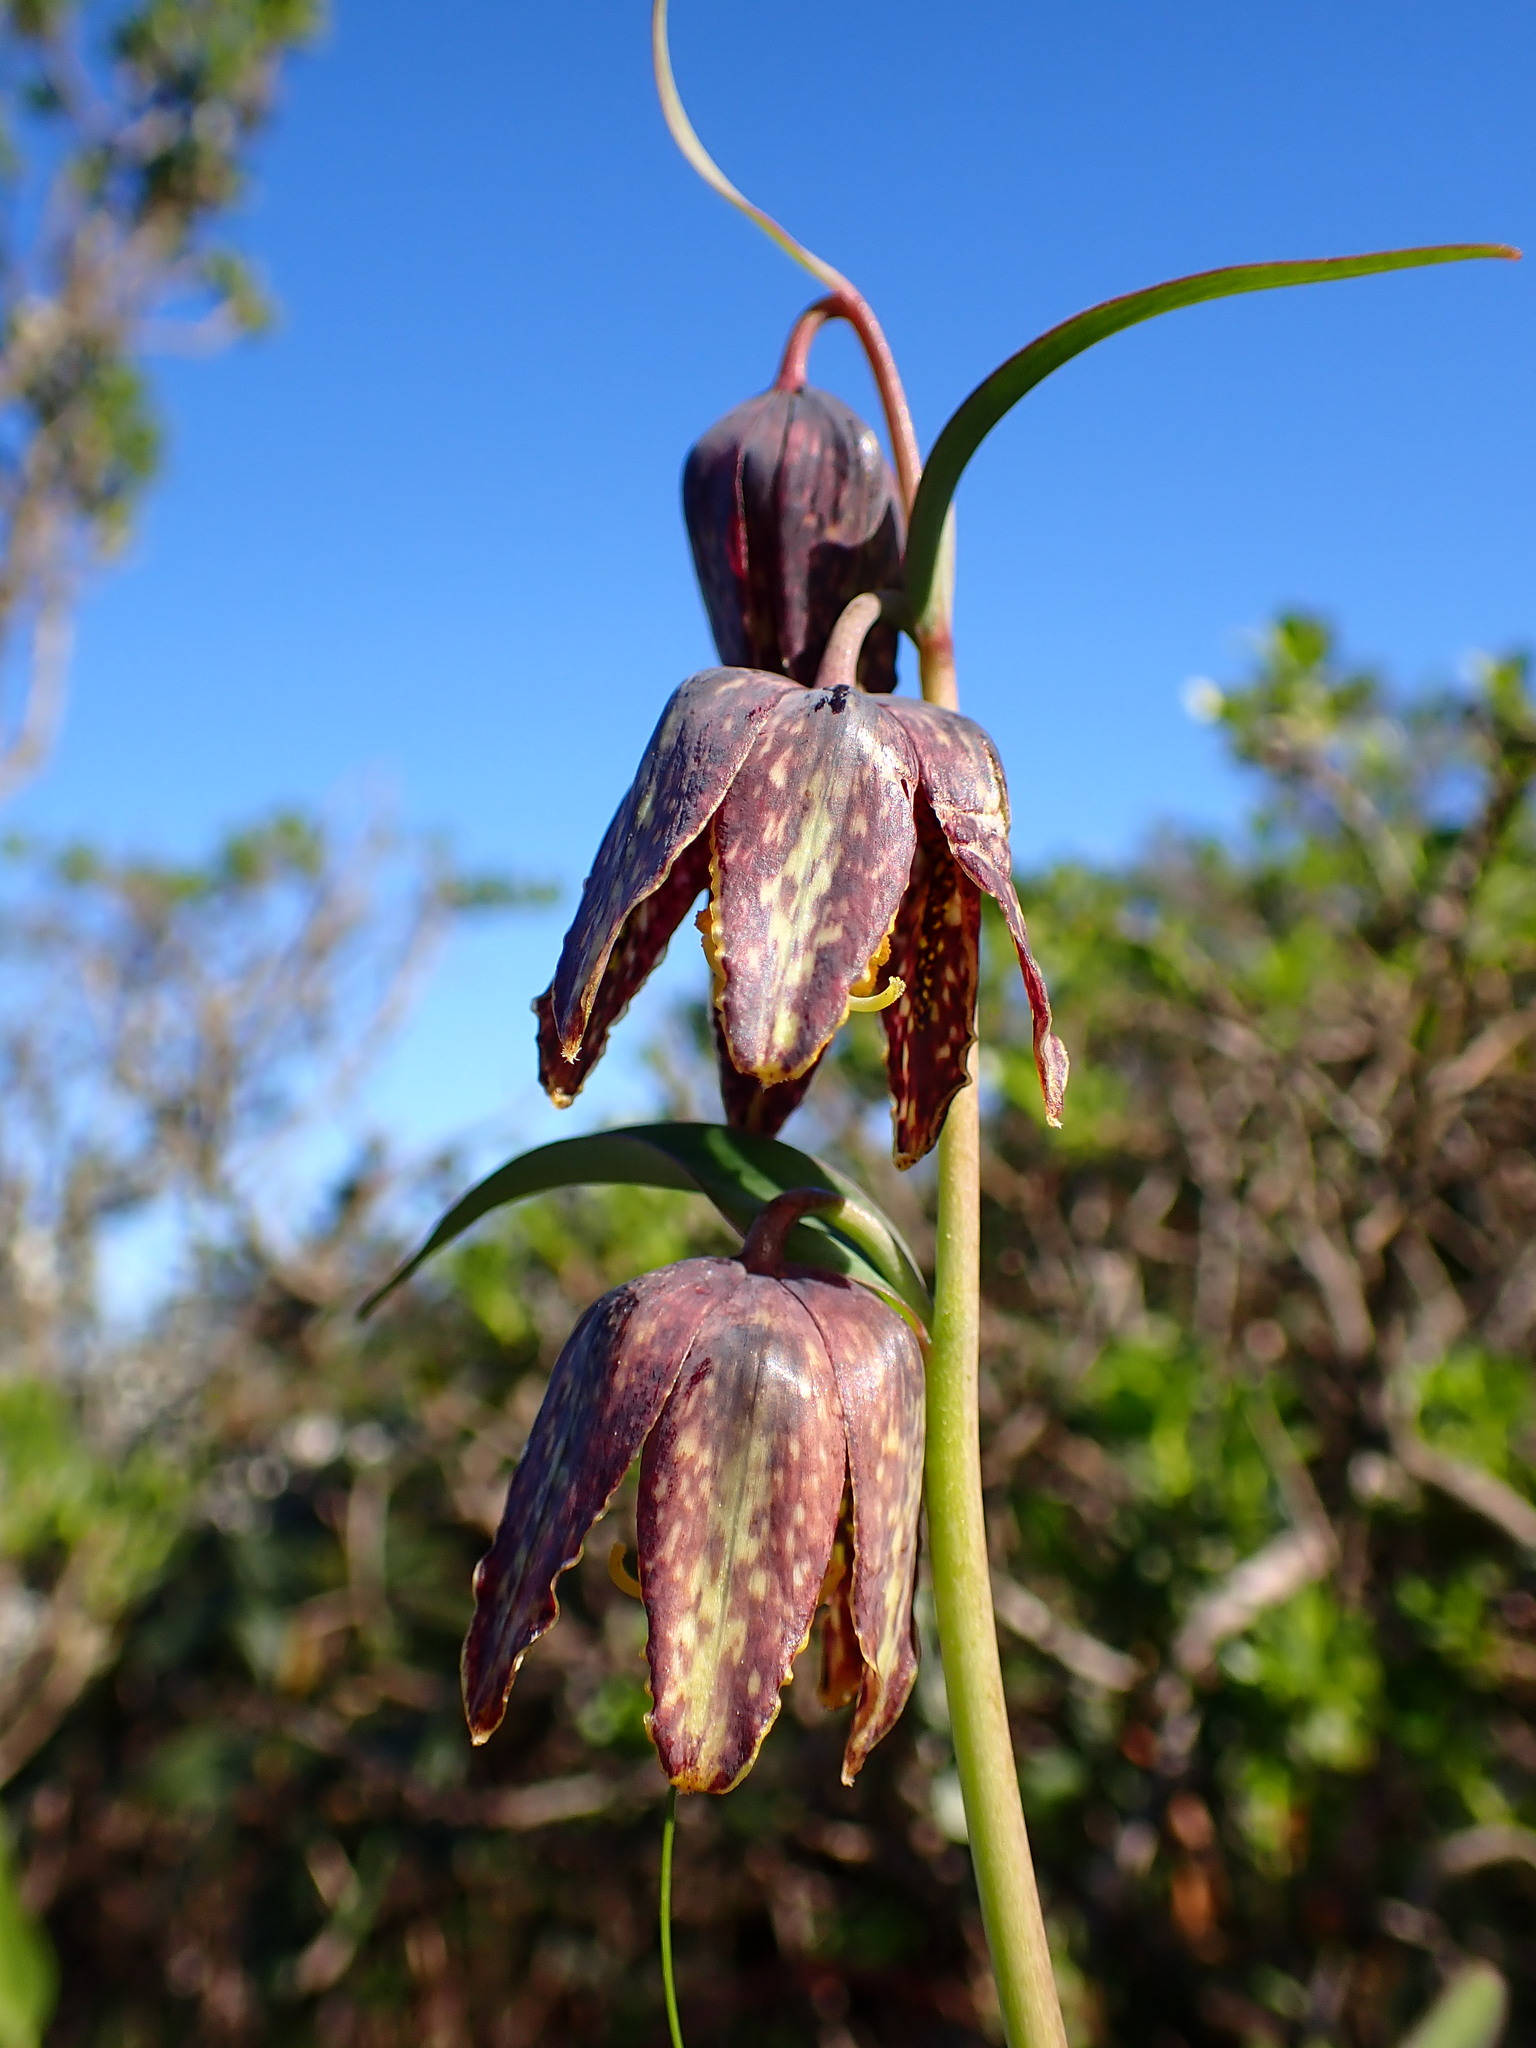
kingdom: Plantae
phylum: Tracheophyta
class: Liliopsida
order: Liliales
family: Liliaceae
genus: Fritillaria
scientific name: Fritillaria affinis
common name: Ojai fritillary
